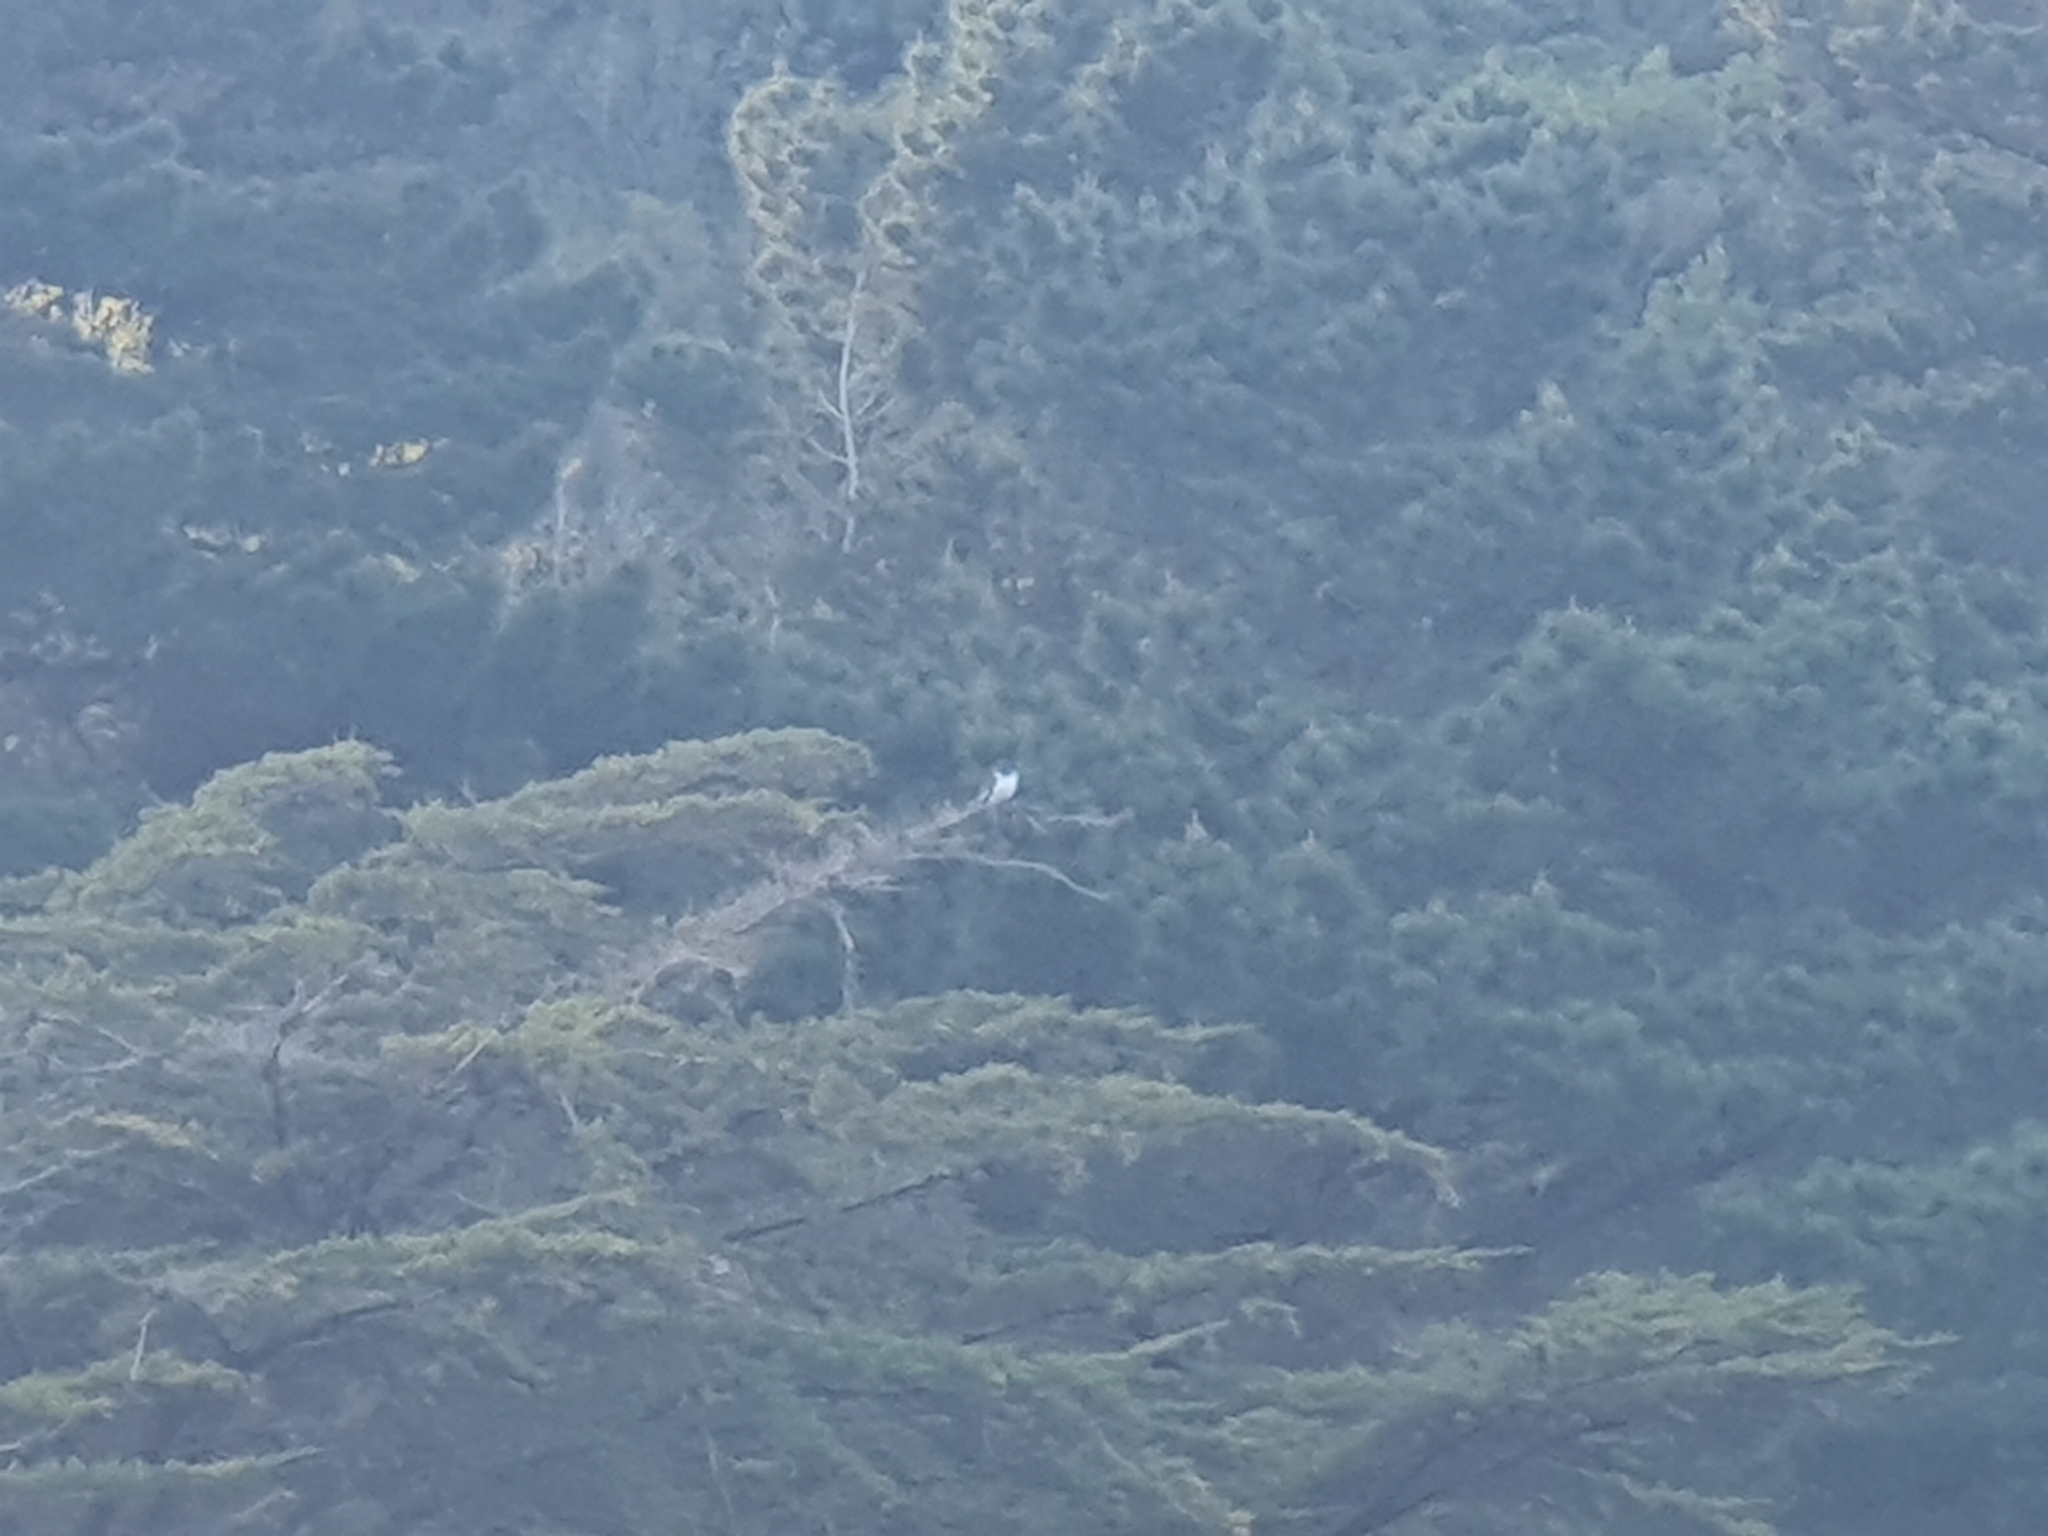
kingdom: Animalia
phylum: Chordata
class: Aves
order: Columbiformes
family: Columbidae
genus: Hemiphaga
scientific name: Hemiphaga novaeseelandiae
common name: New zealand pigeon
